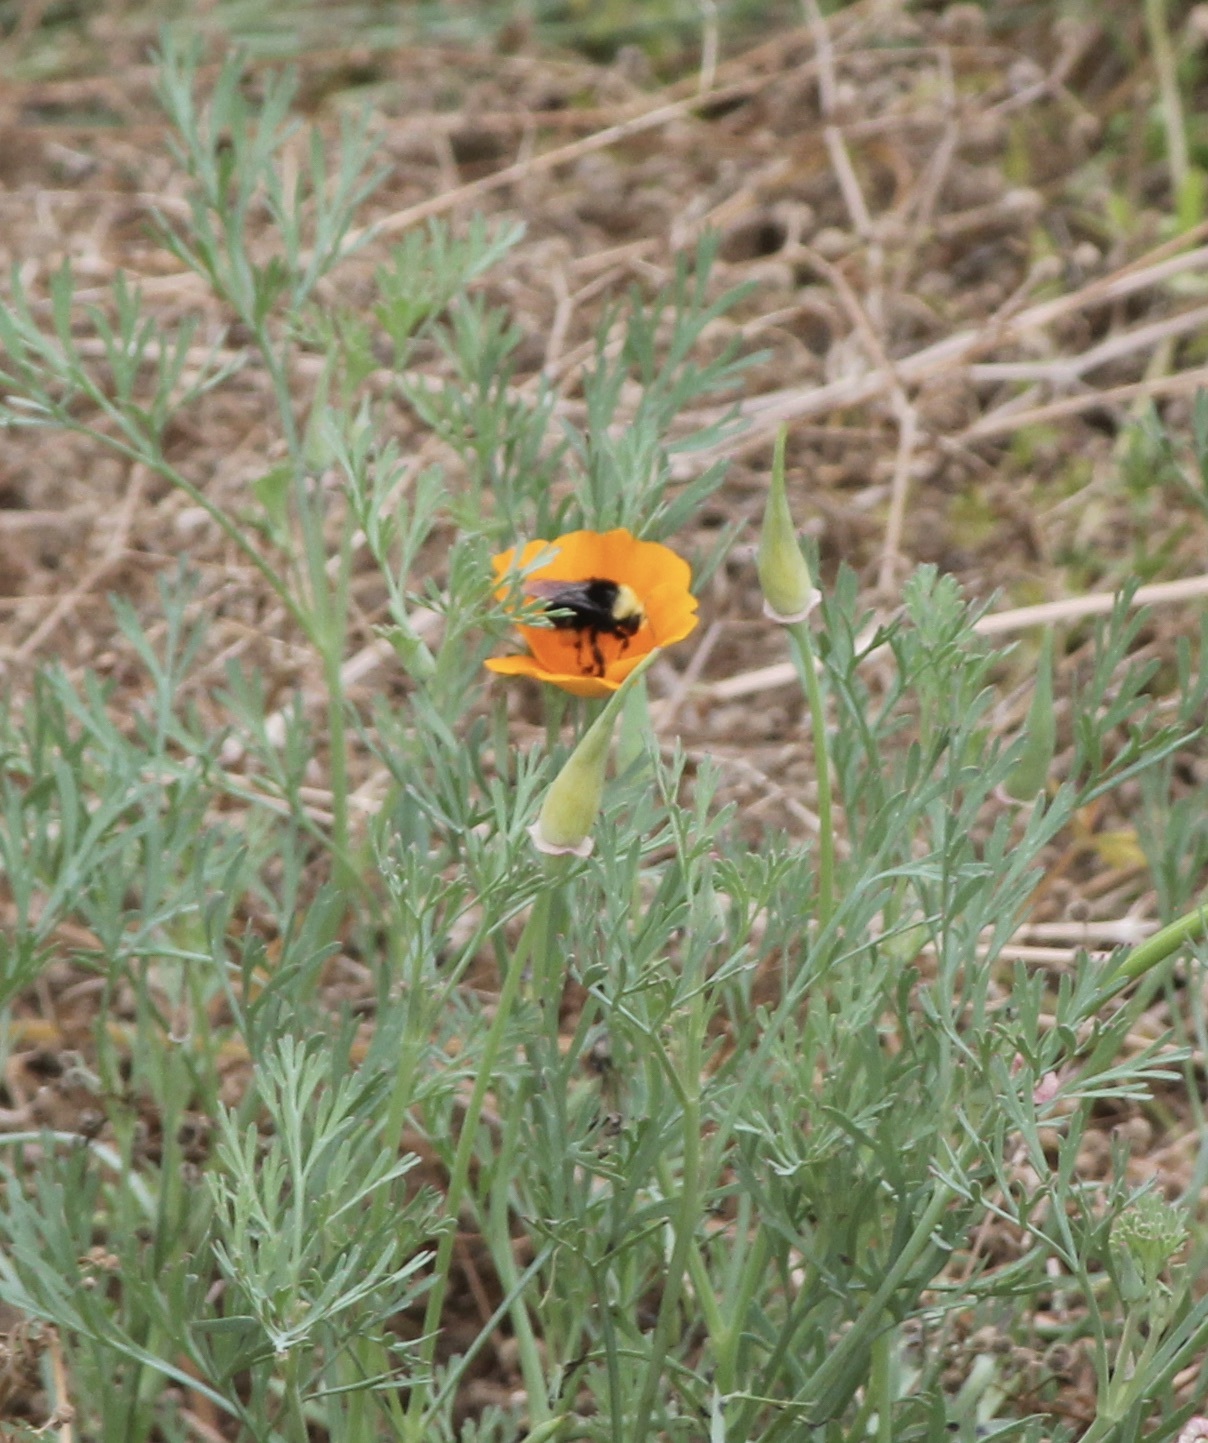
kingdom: Animalia
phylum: Arthropoda
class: Insecta
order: Hymenoptera
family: Apidae
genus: Bombus
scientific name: Bombus vosnesenskii
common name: Vosnesensky bumble bee
